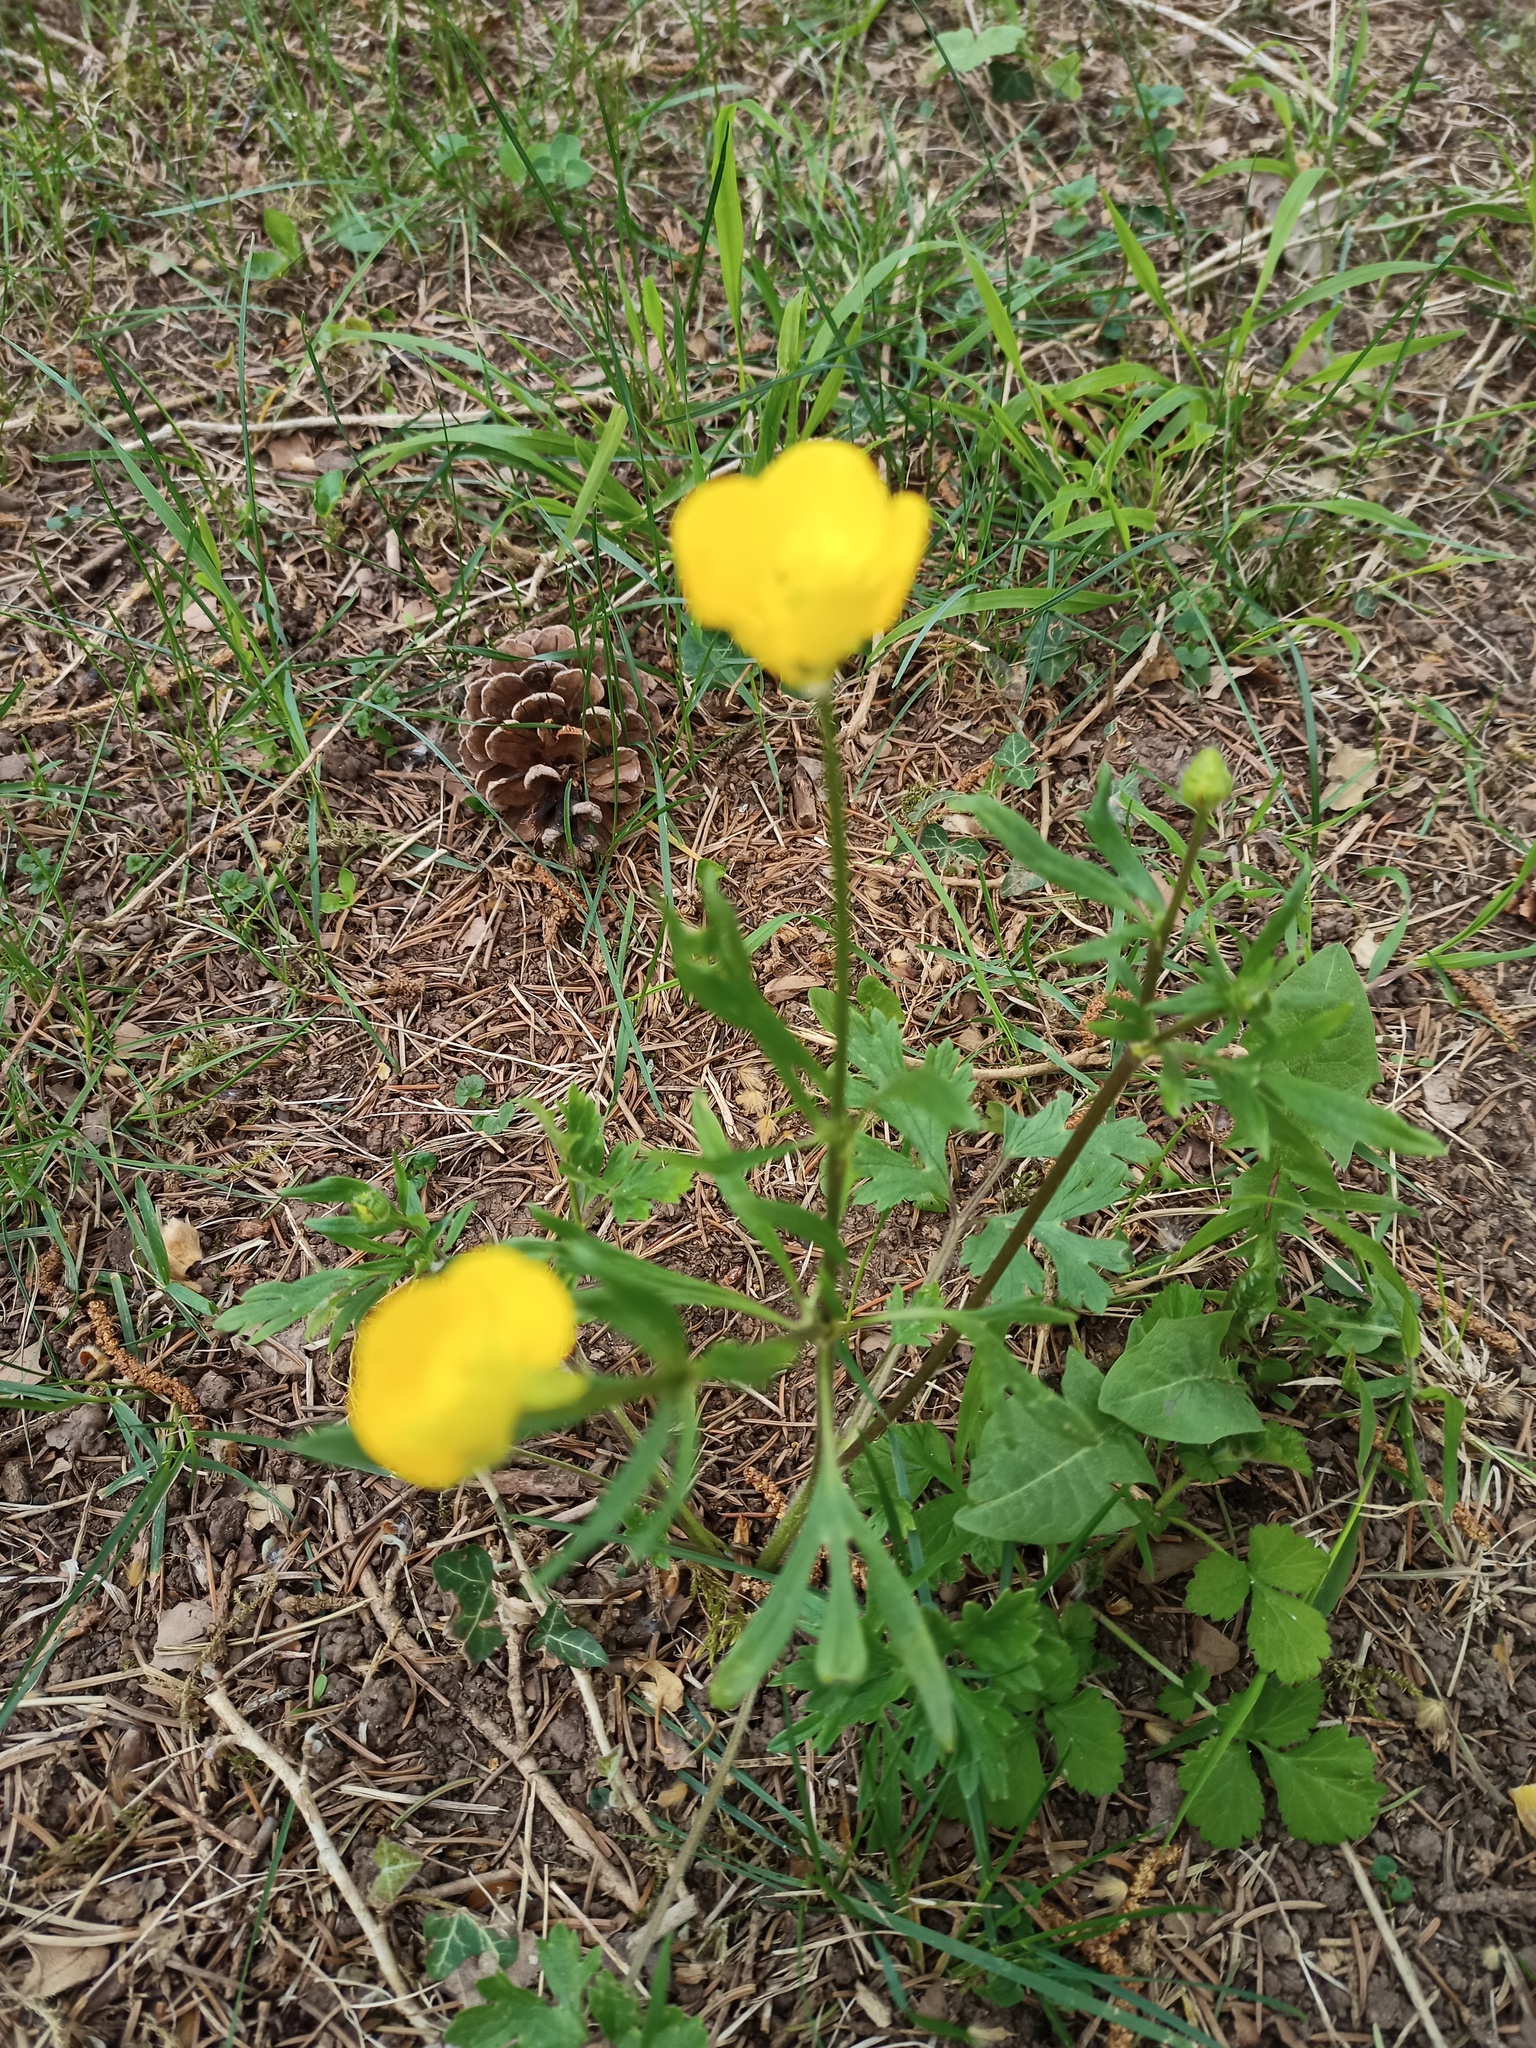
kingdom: Plantae
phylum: Tracheophyta
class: Magnoliopsida
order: Ranunculales
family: Ranunculaceae
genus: Ranunculus
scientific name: Ranunculus bulbosus
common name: Bulbous buttercup
